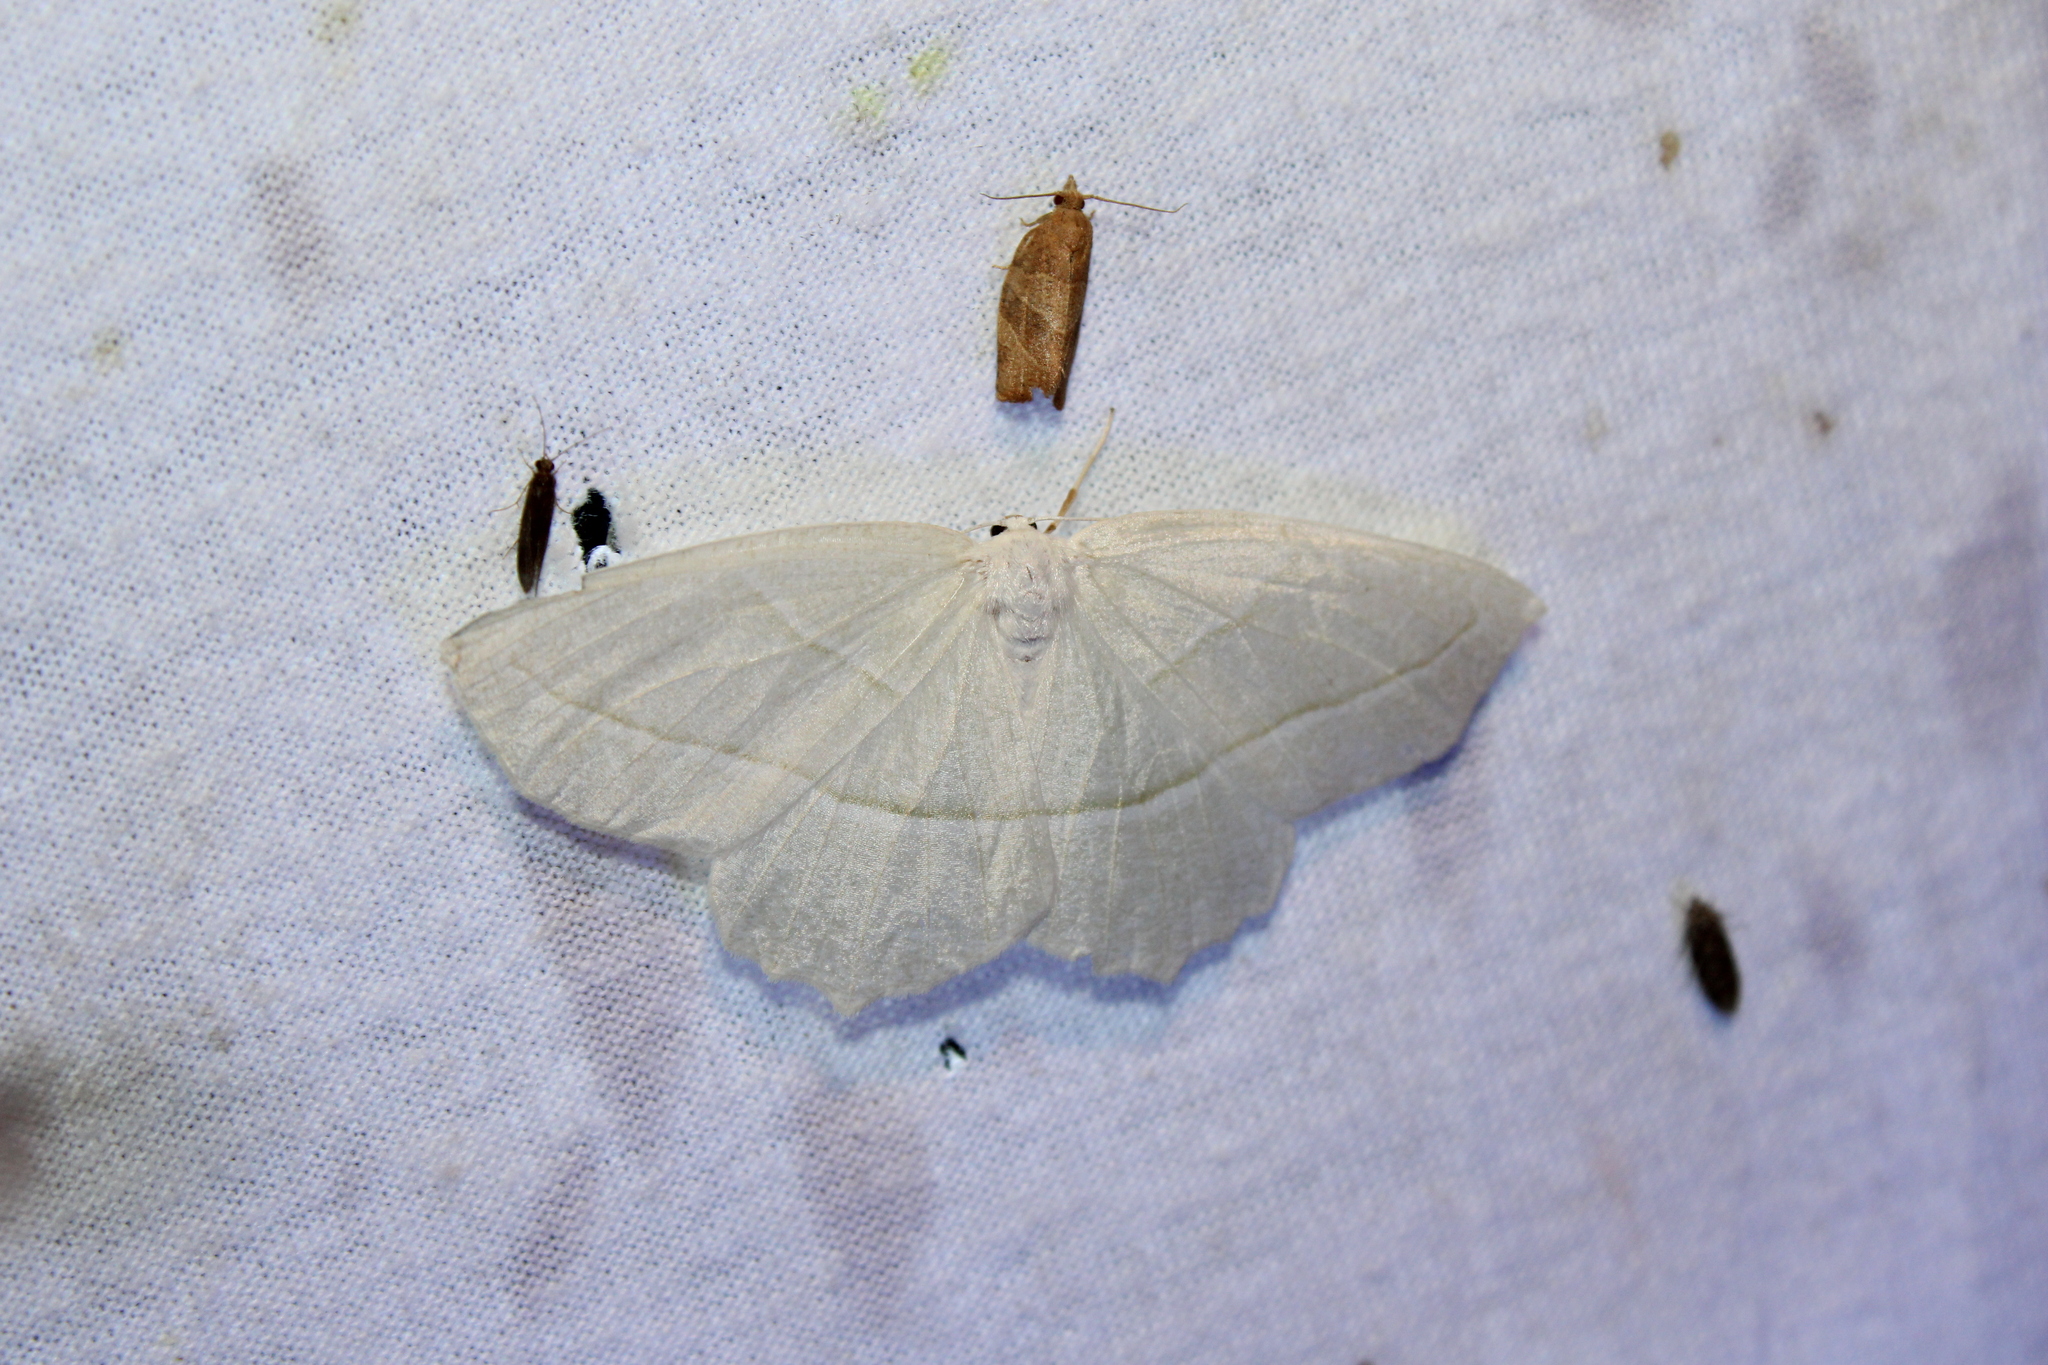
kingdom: Animalia
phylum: Arthropoda
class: Insecta
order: Lepidoptera
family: Geometridae
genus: Campaea
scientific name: Campaea perlata
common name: Fringed looper
